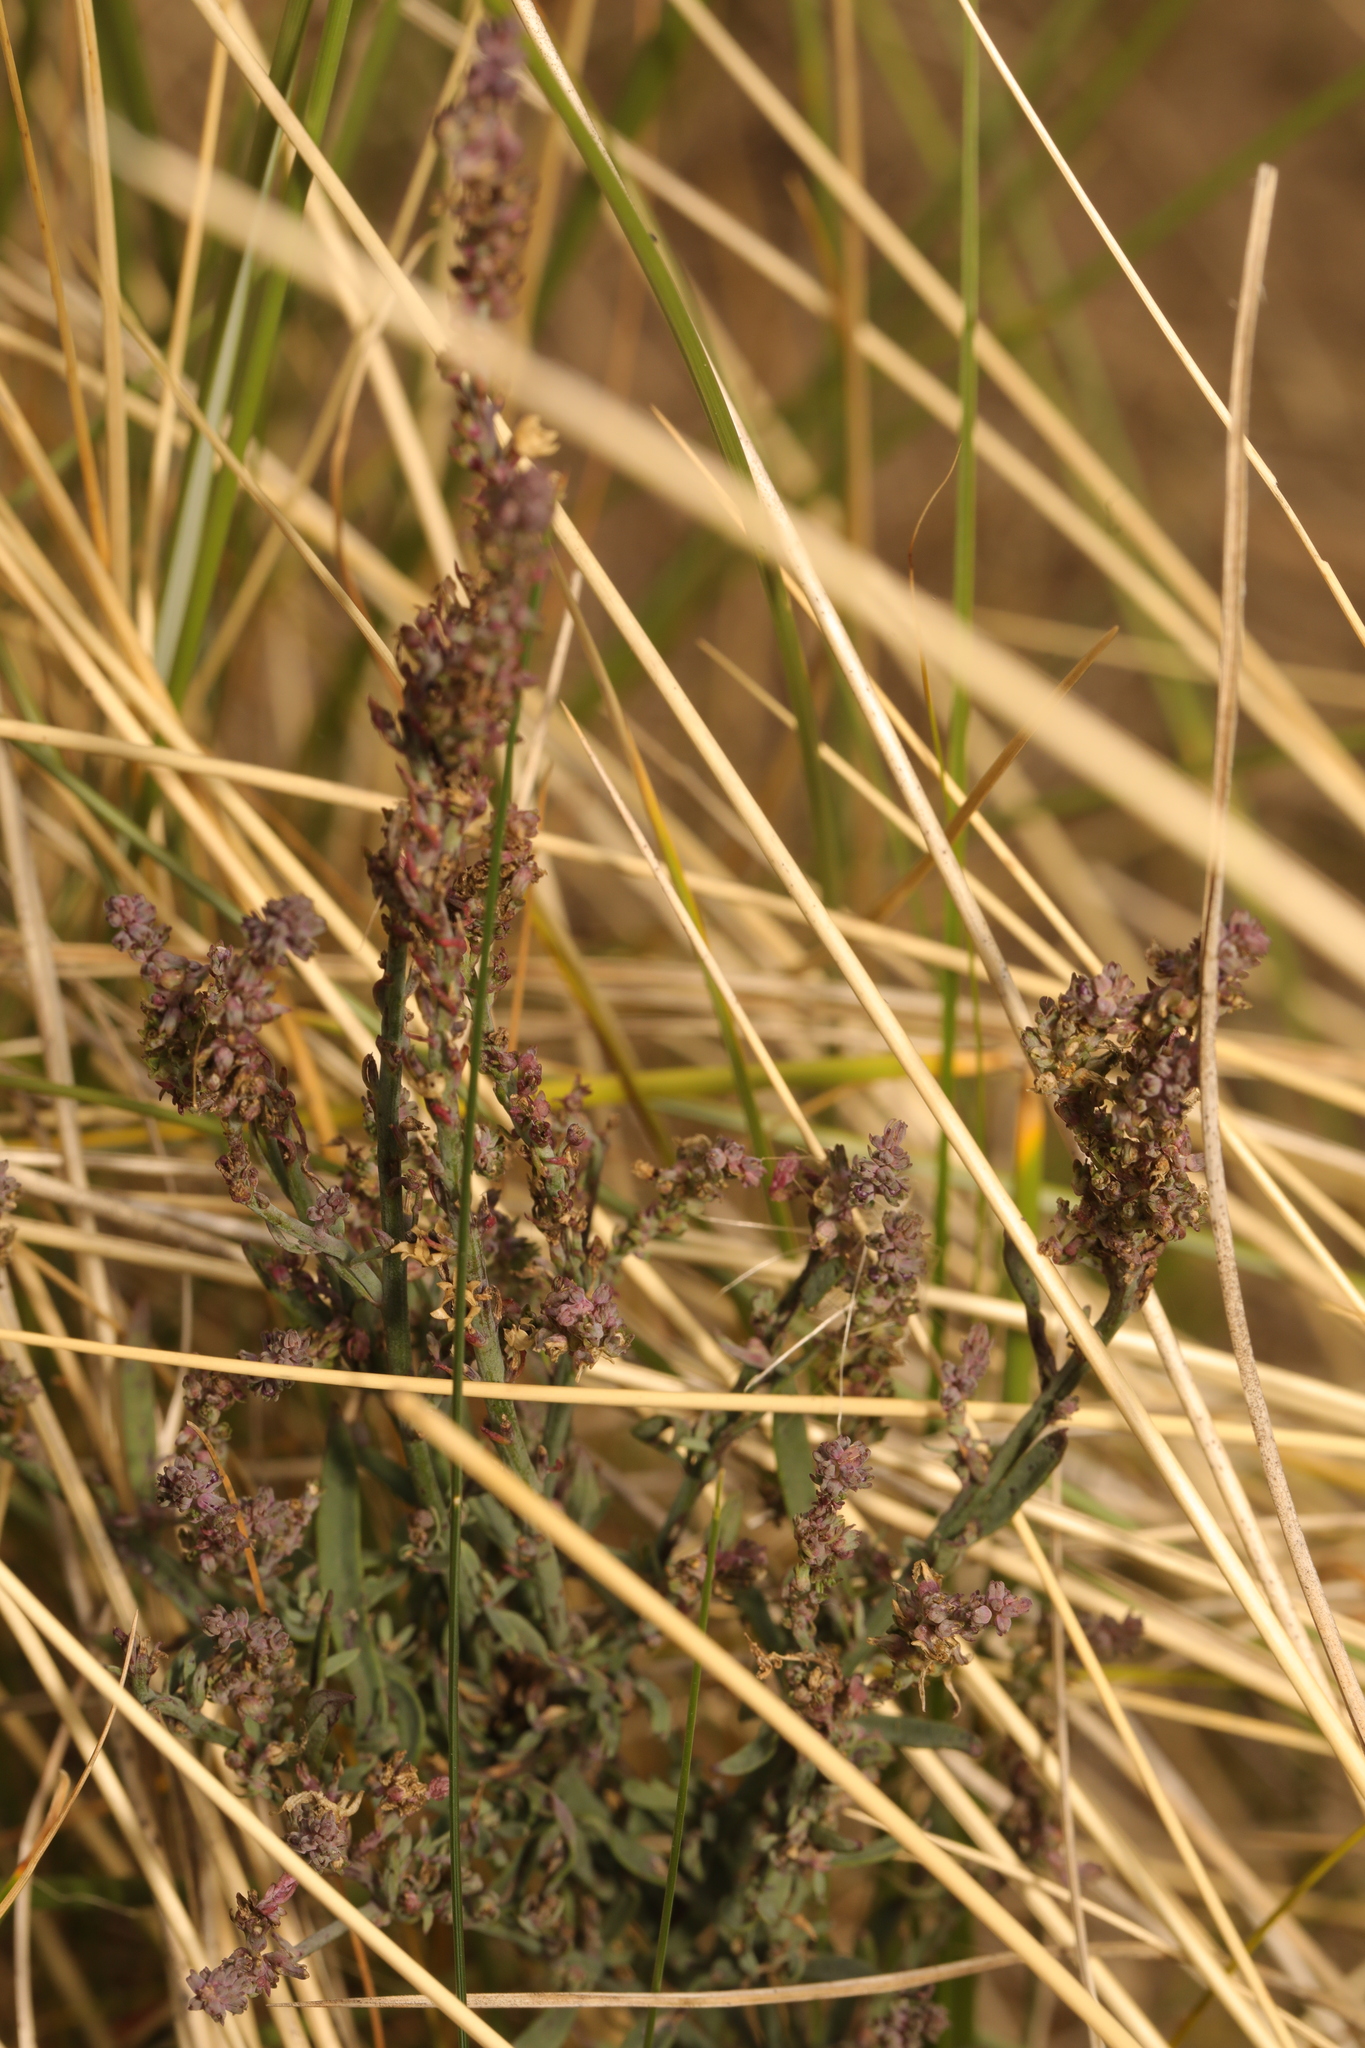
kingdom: Plantae
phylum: Tracheophyta
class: Magnoliopsida
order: Lamiales
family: Plantaginaceae
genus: Linaria
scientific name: Linaria purpurea
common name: Purple toadflax
